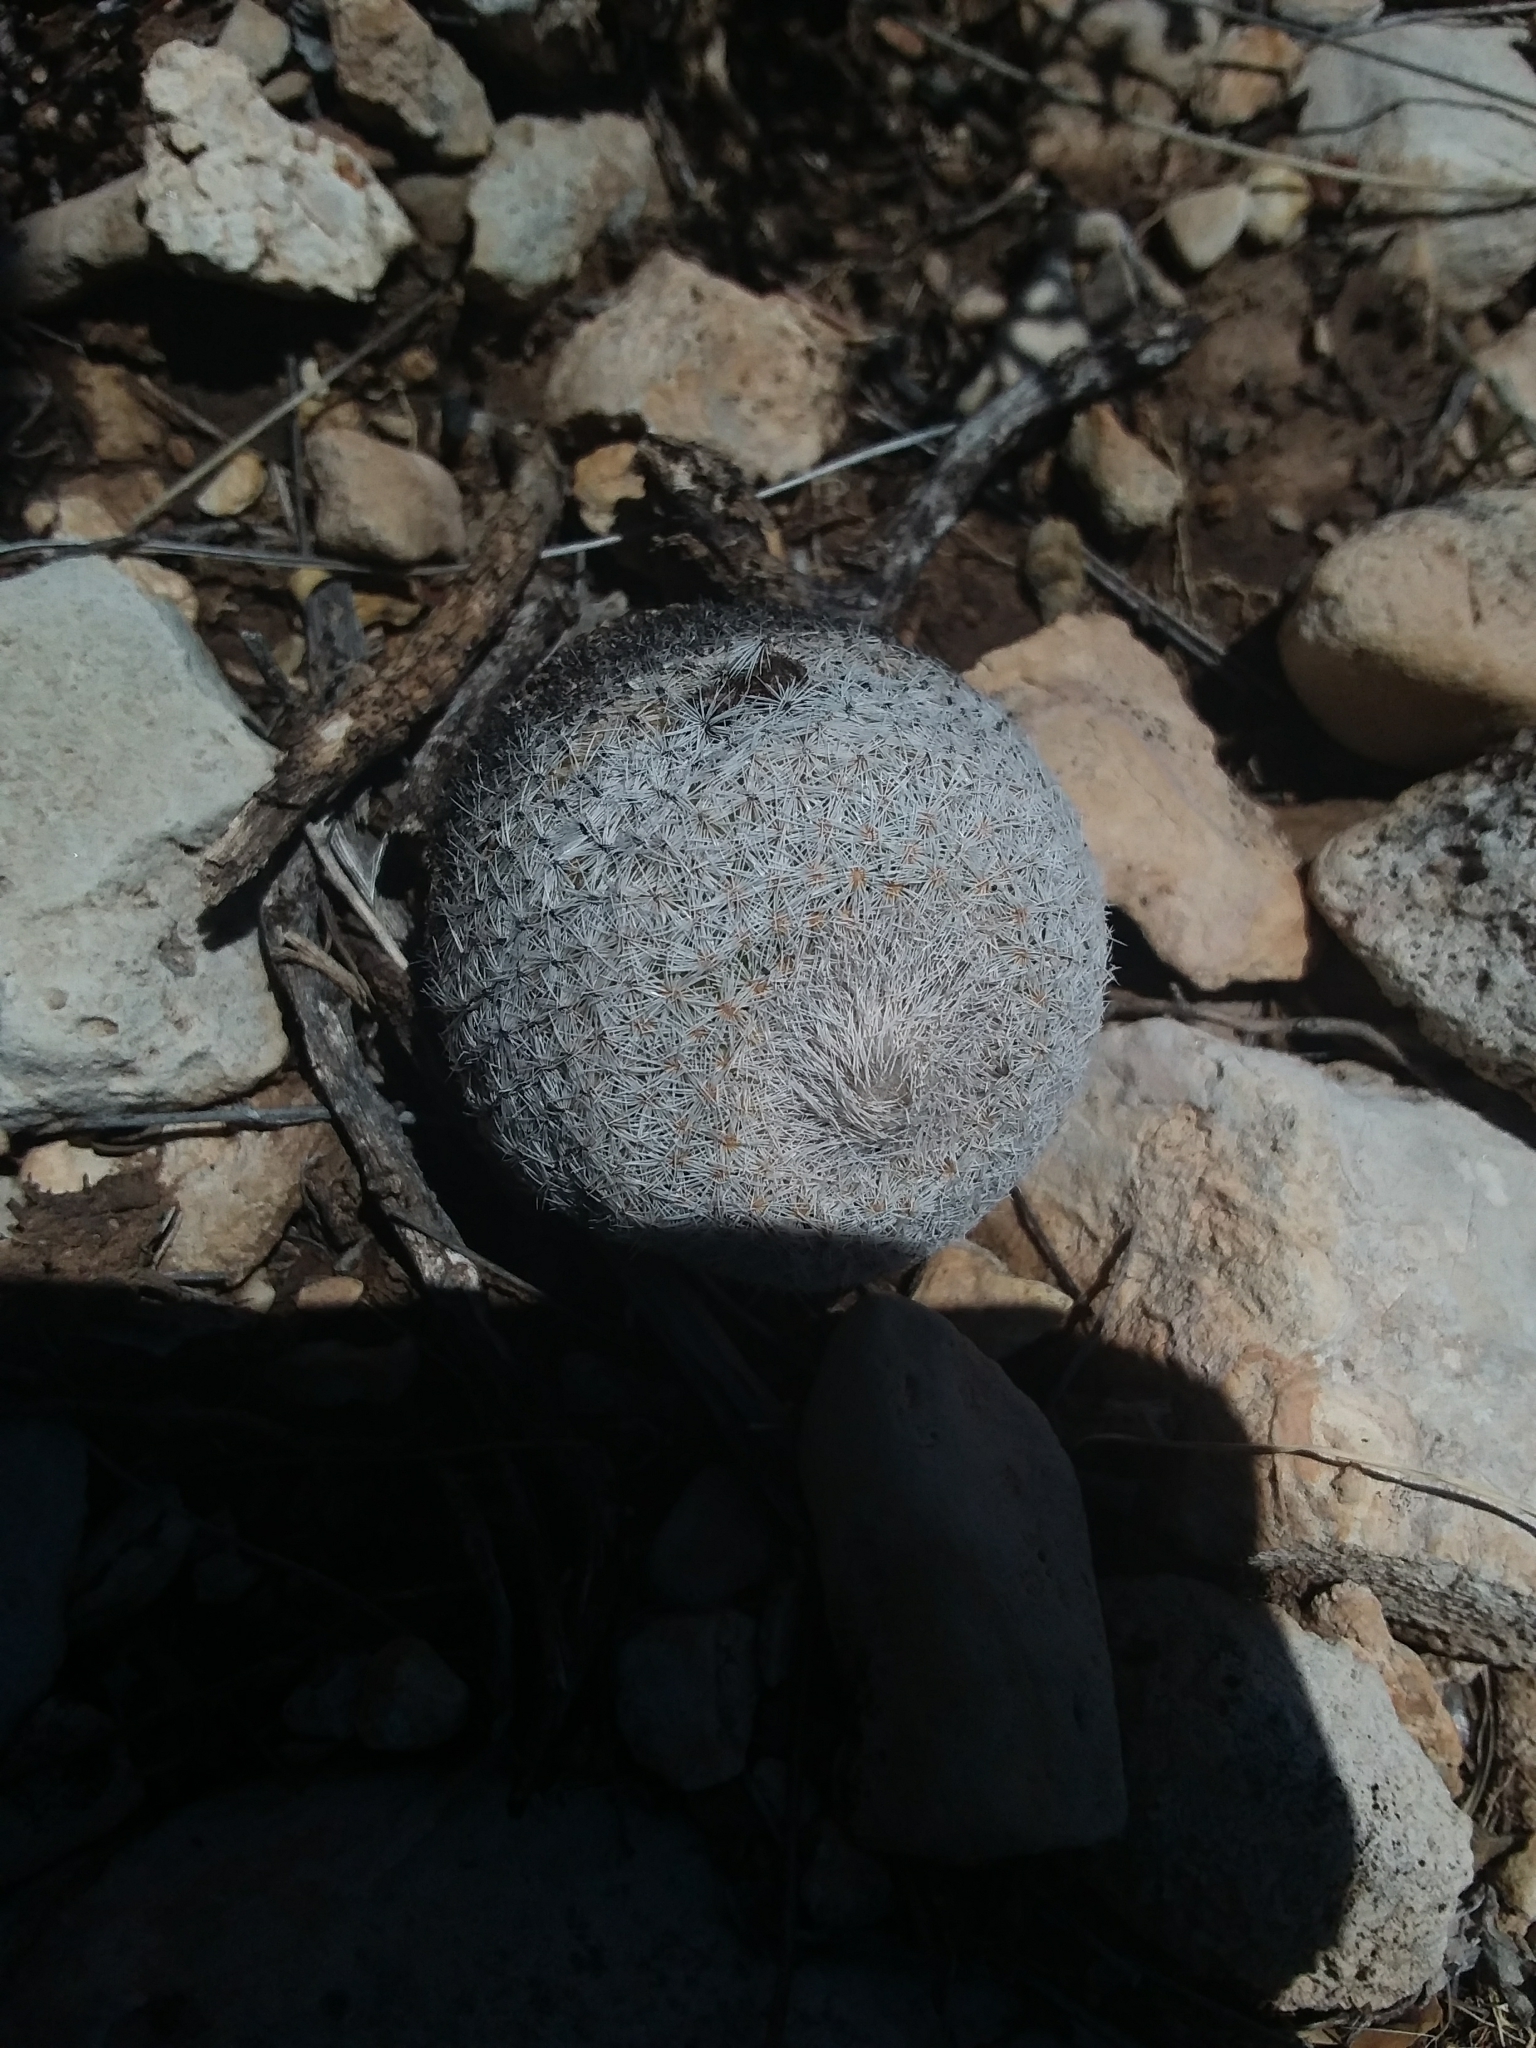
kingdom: Plantae
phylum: Tracheophyta
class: Magnoliopsida
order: Caryophyllales
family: Cactaceae
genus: Epithelantha
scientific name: Epithelantha micromeris
